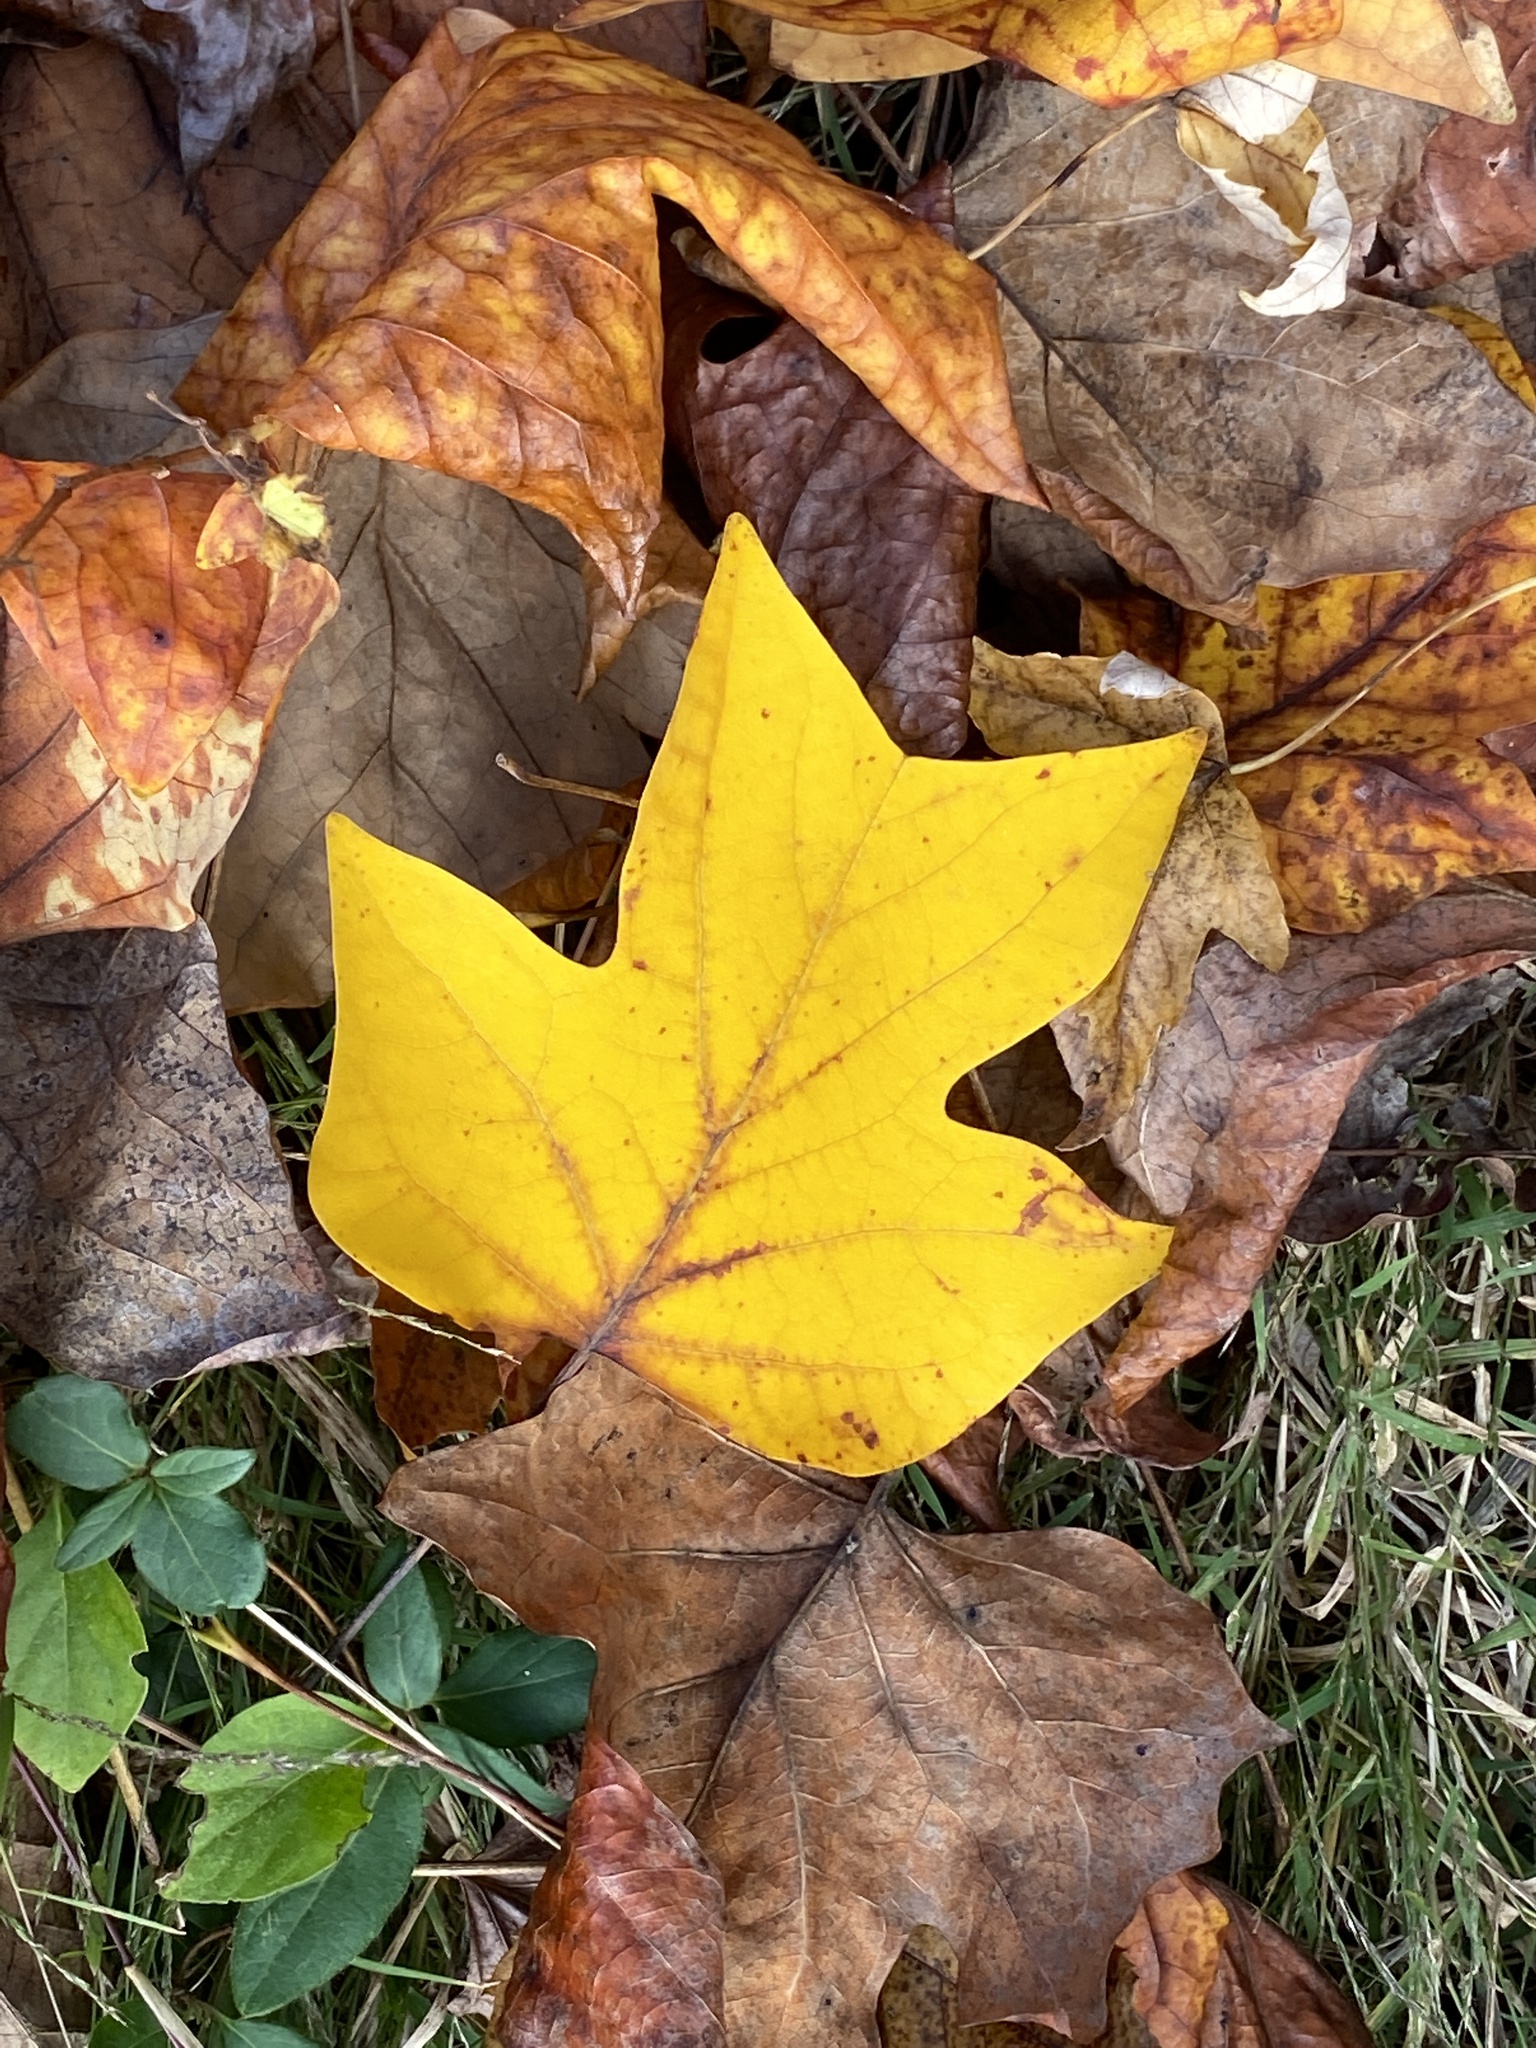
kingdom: Plantae
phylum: Tracheophyta
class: Magnoliopsida
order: Magnoliales
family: Magnoliaceae
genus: Liriodendron
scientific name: Liriodendron tulipifera
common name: Tulip tree
